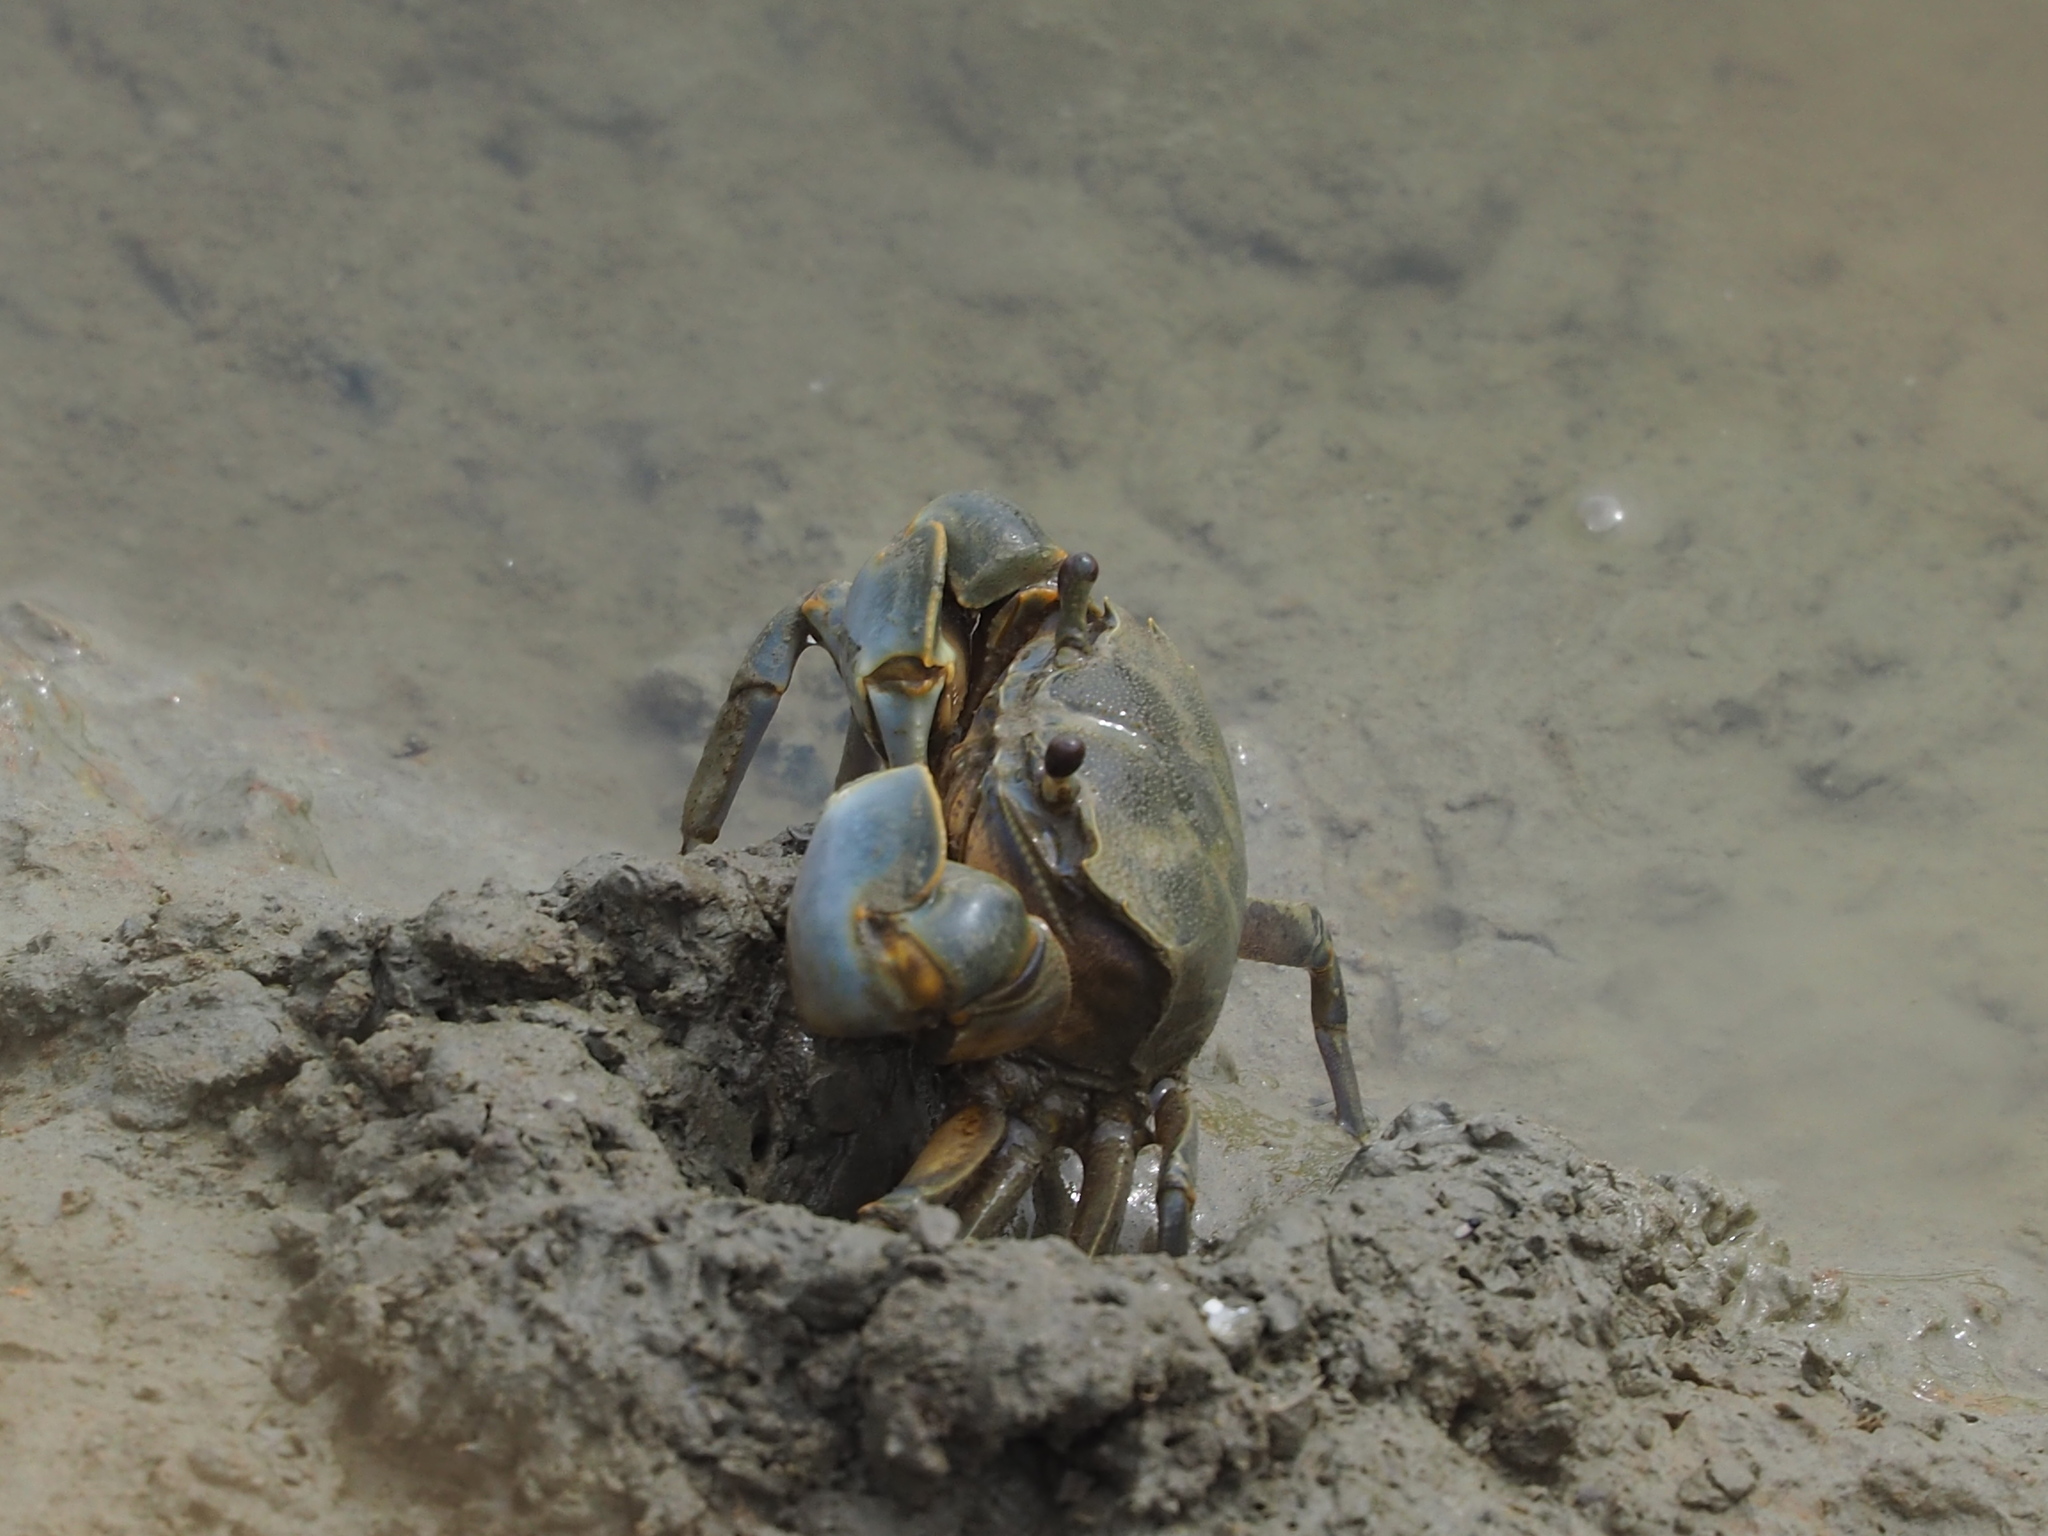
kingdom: Animalia
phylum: Arthropoda
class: Malacostraca
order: Decapoda
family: Varunidae
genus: Helice
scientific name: Helice formosensis
